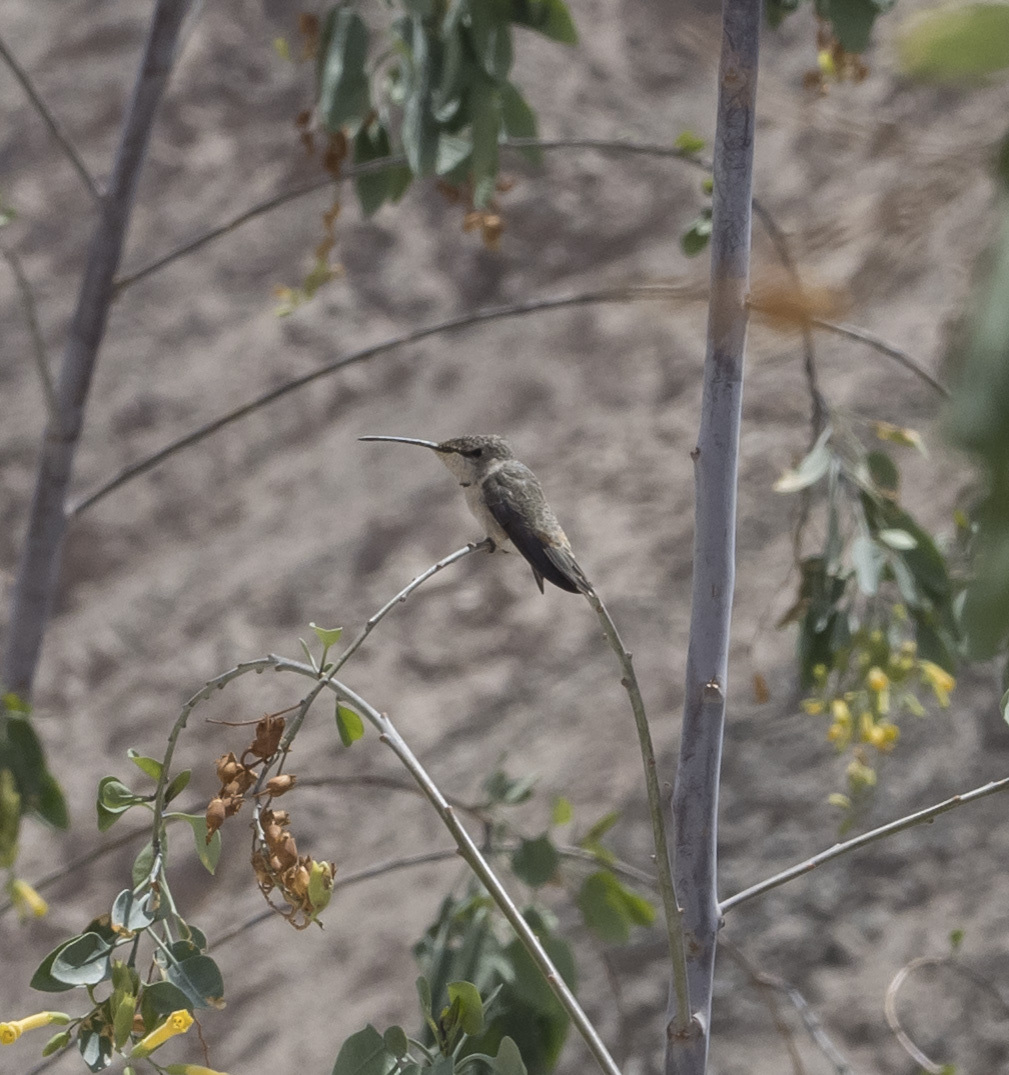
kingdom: Animalia
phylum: Chordata
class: Aves
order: Apodiformes
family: Trochilidae
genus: Rhodopis
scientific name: Rhodopis vesper
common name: Oasis hummingbird
